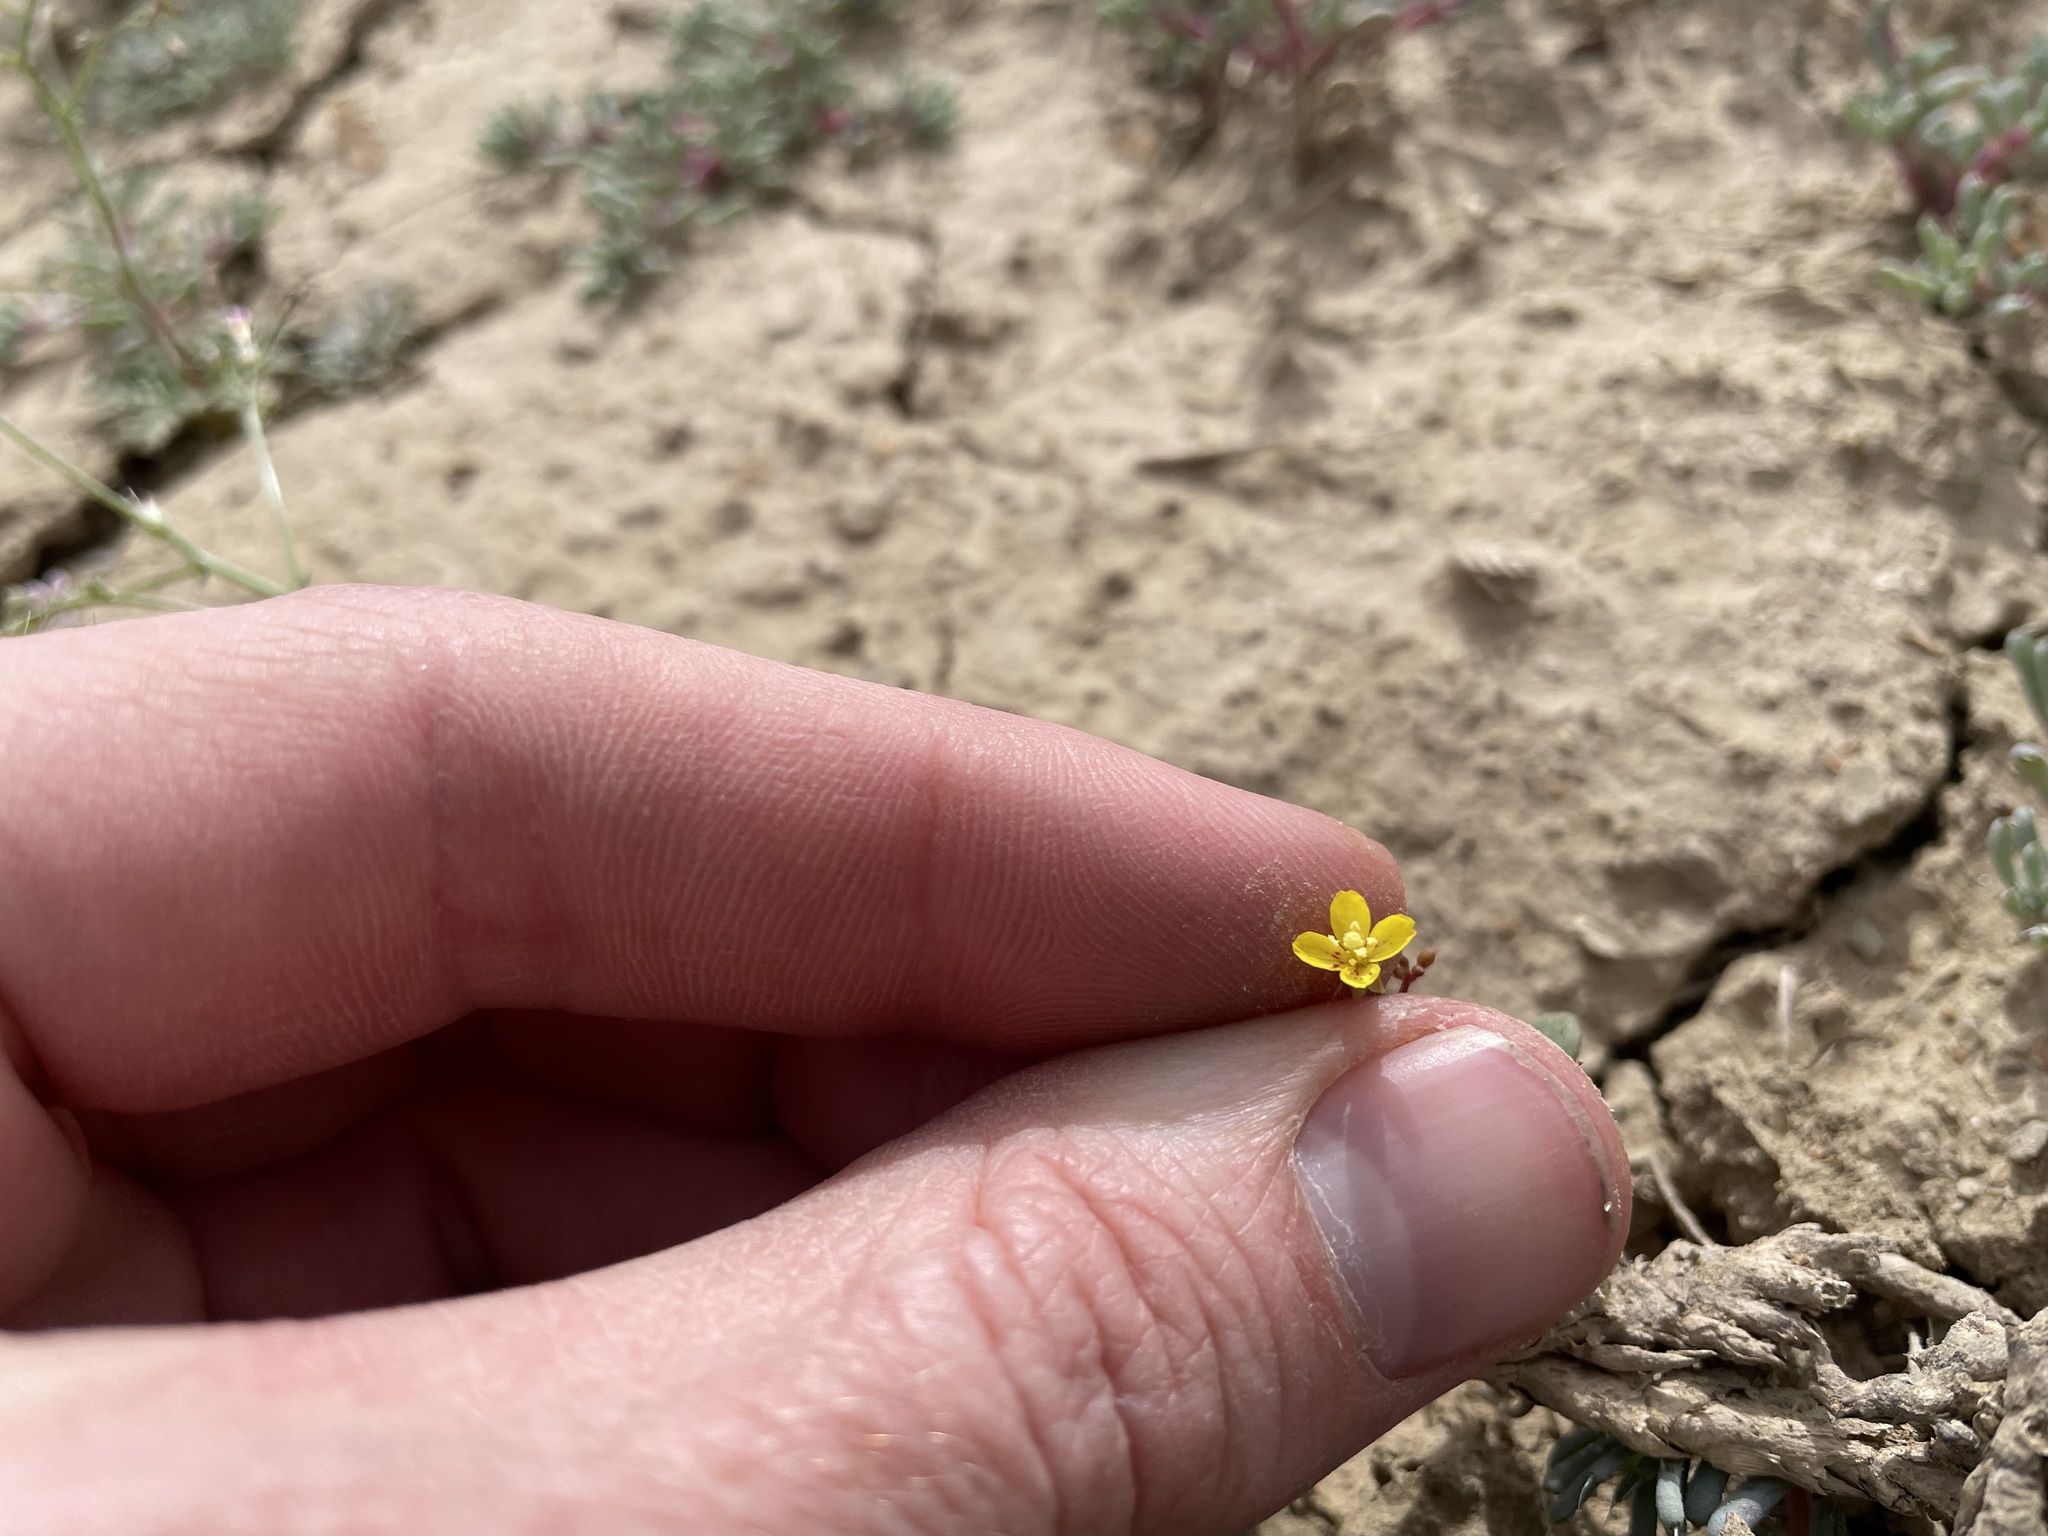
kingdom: Plantae
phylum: Tracheophyta
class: Magnoliopsida
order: Myrtales
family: Onagraceae
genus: Chylismia
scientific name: Chylismia scapoidea
